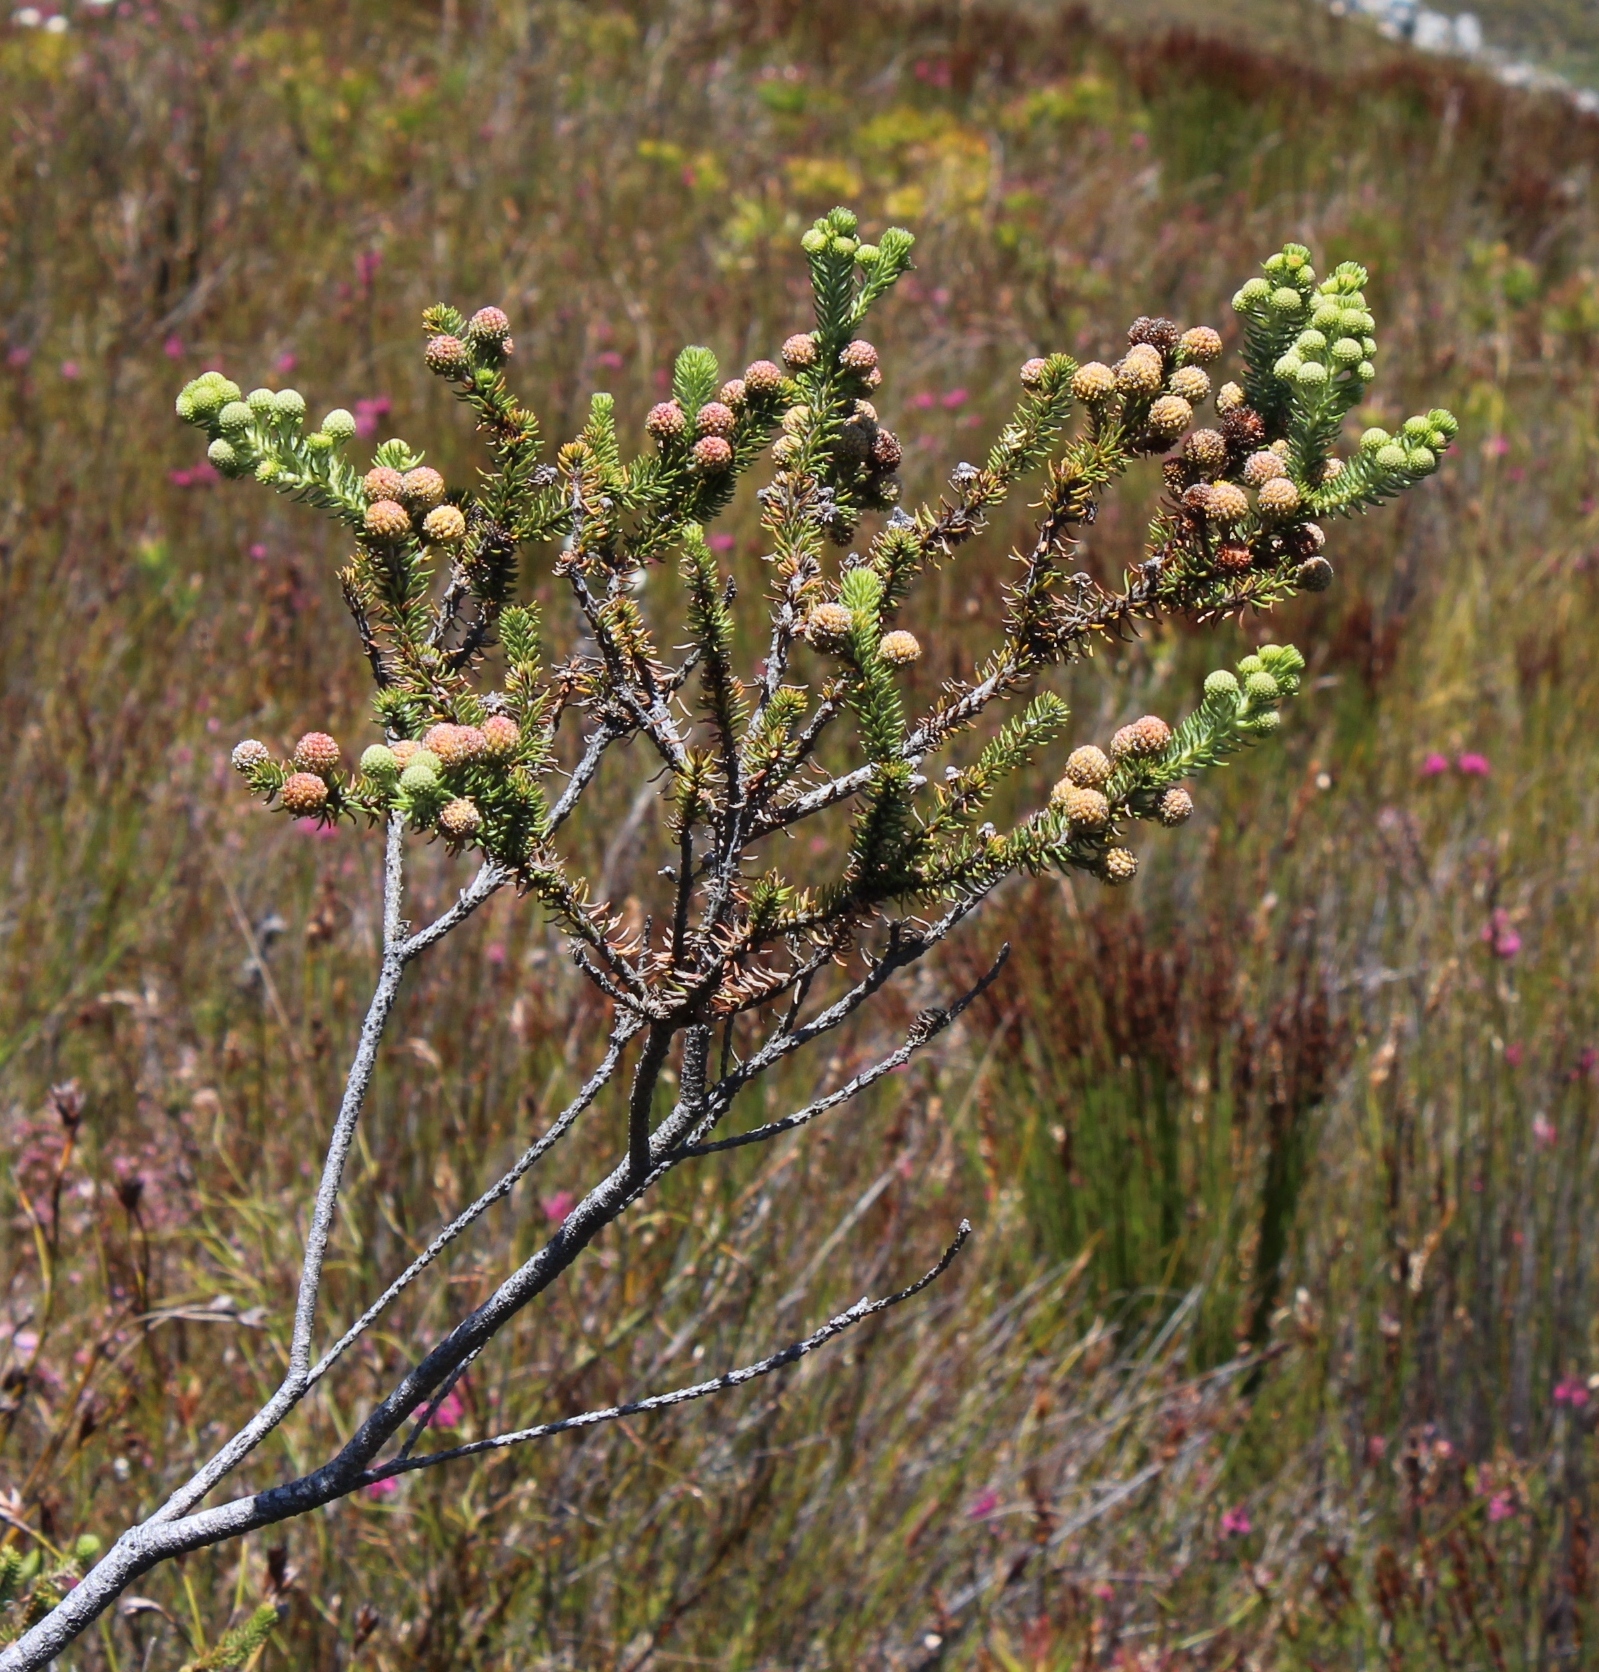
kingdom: Plantae
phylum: Tracheophyta
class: Magnoliopsida
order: Bruniales
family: Bruniaceae
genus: Berzelia
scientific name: Berzelia rubra
